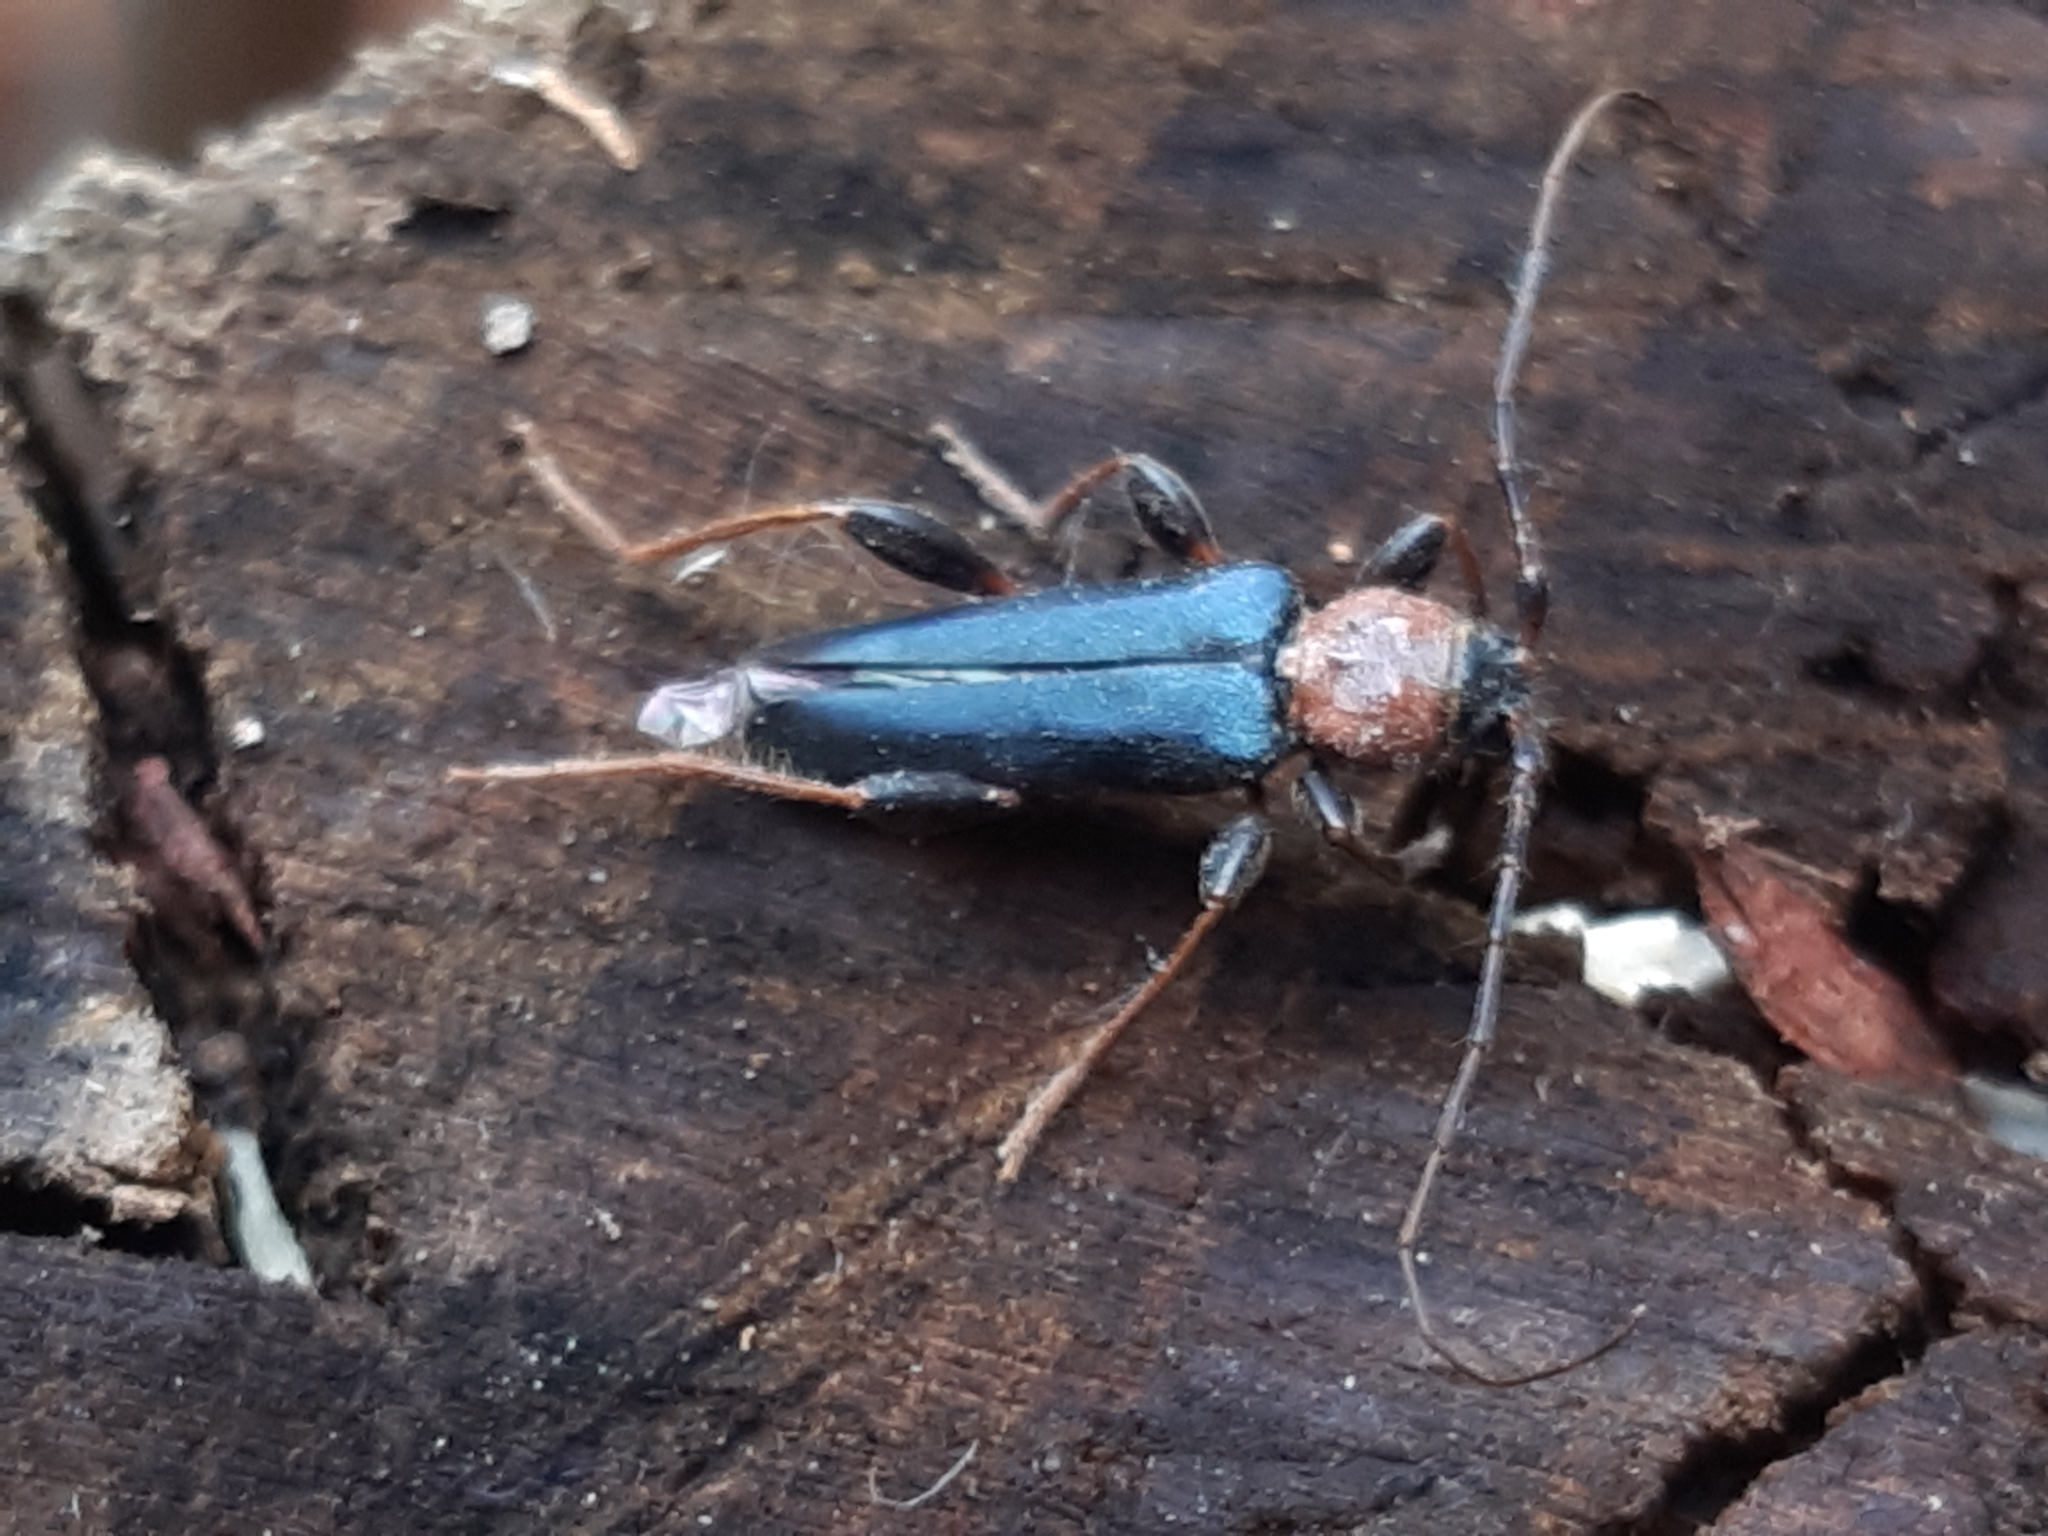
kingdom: Animalia
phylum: Arthropoda
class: Insecta
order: Coleoptera
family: Cerambycidae
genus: Phymatodes
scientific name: Phymatodes testaceus
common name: Long-horned beetle
